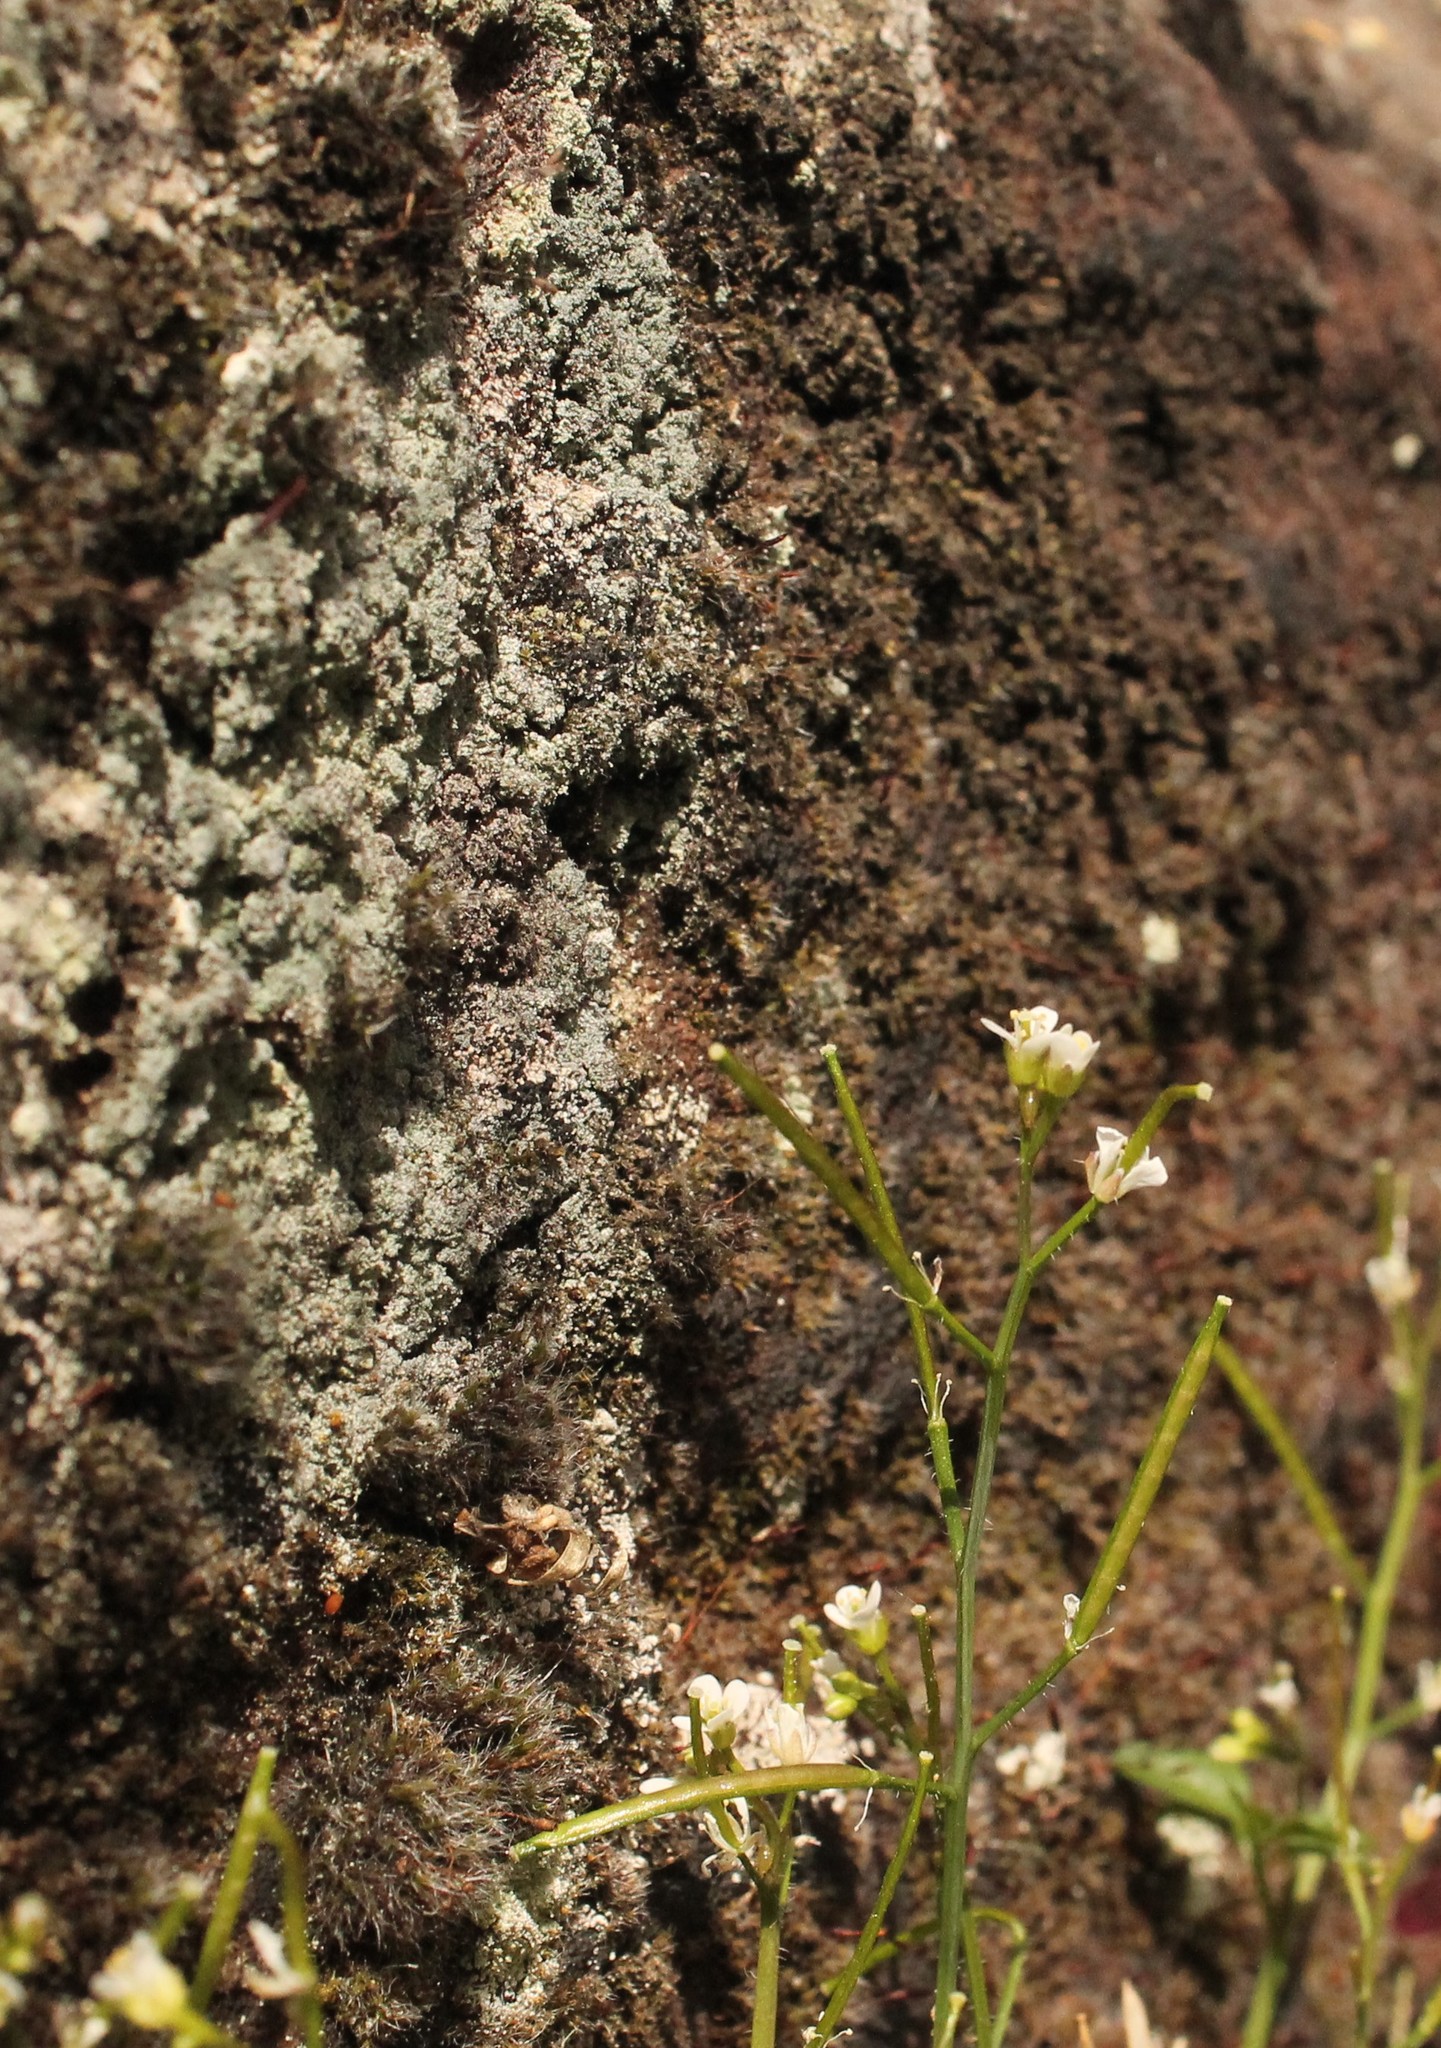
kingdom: Plantae
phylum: Tracheophyta
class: Magnoliopsida
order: Brassicales
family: Brassicaceae
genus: Cardamine
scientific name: Cardamine hirsuta
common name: Hairy bittercress
